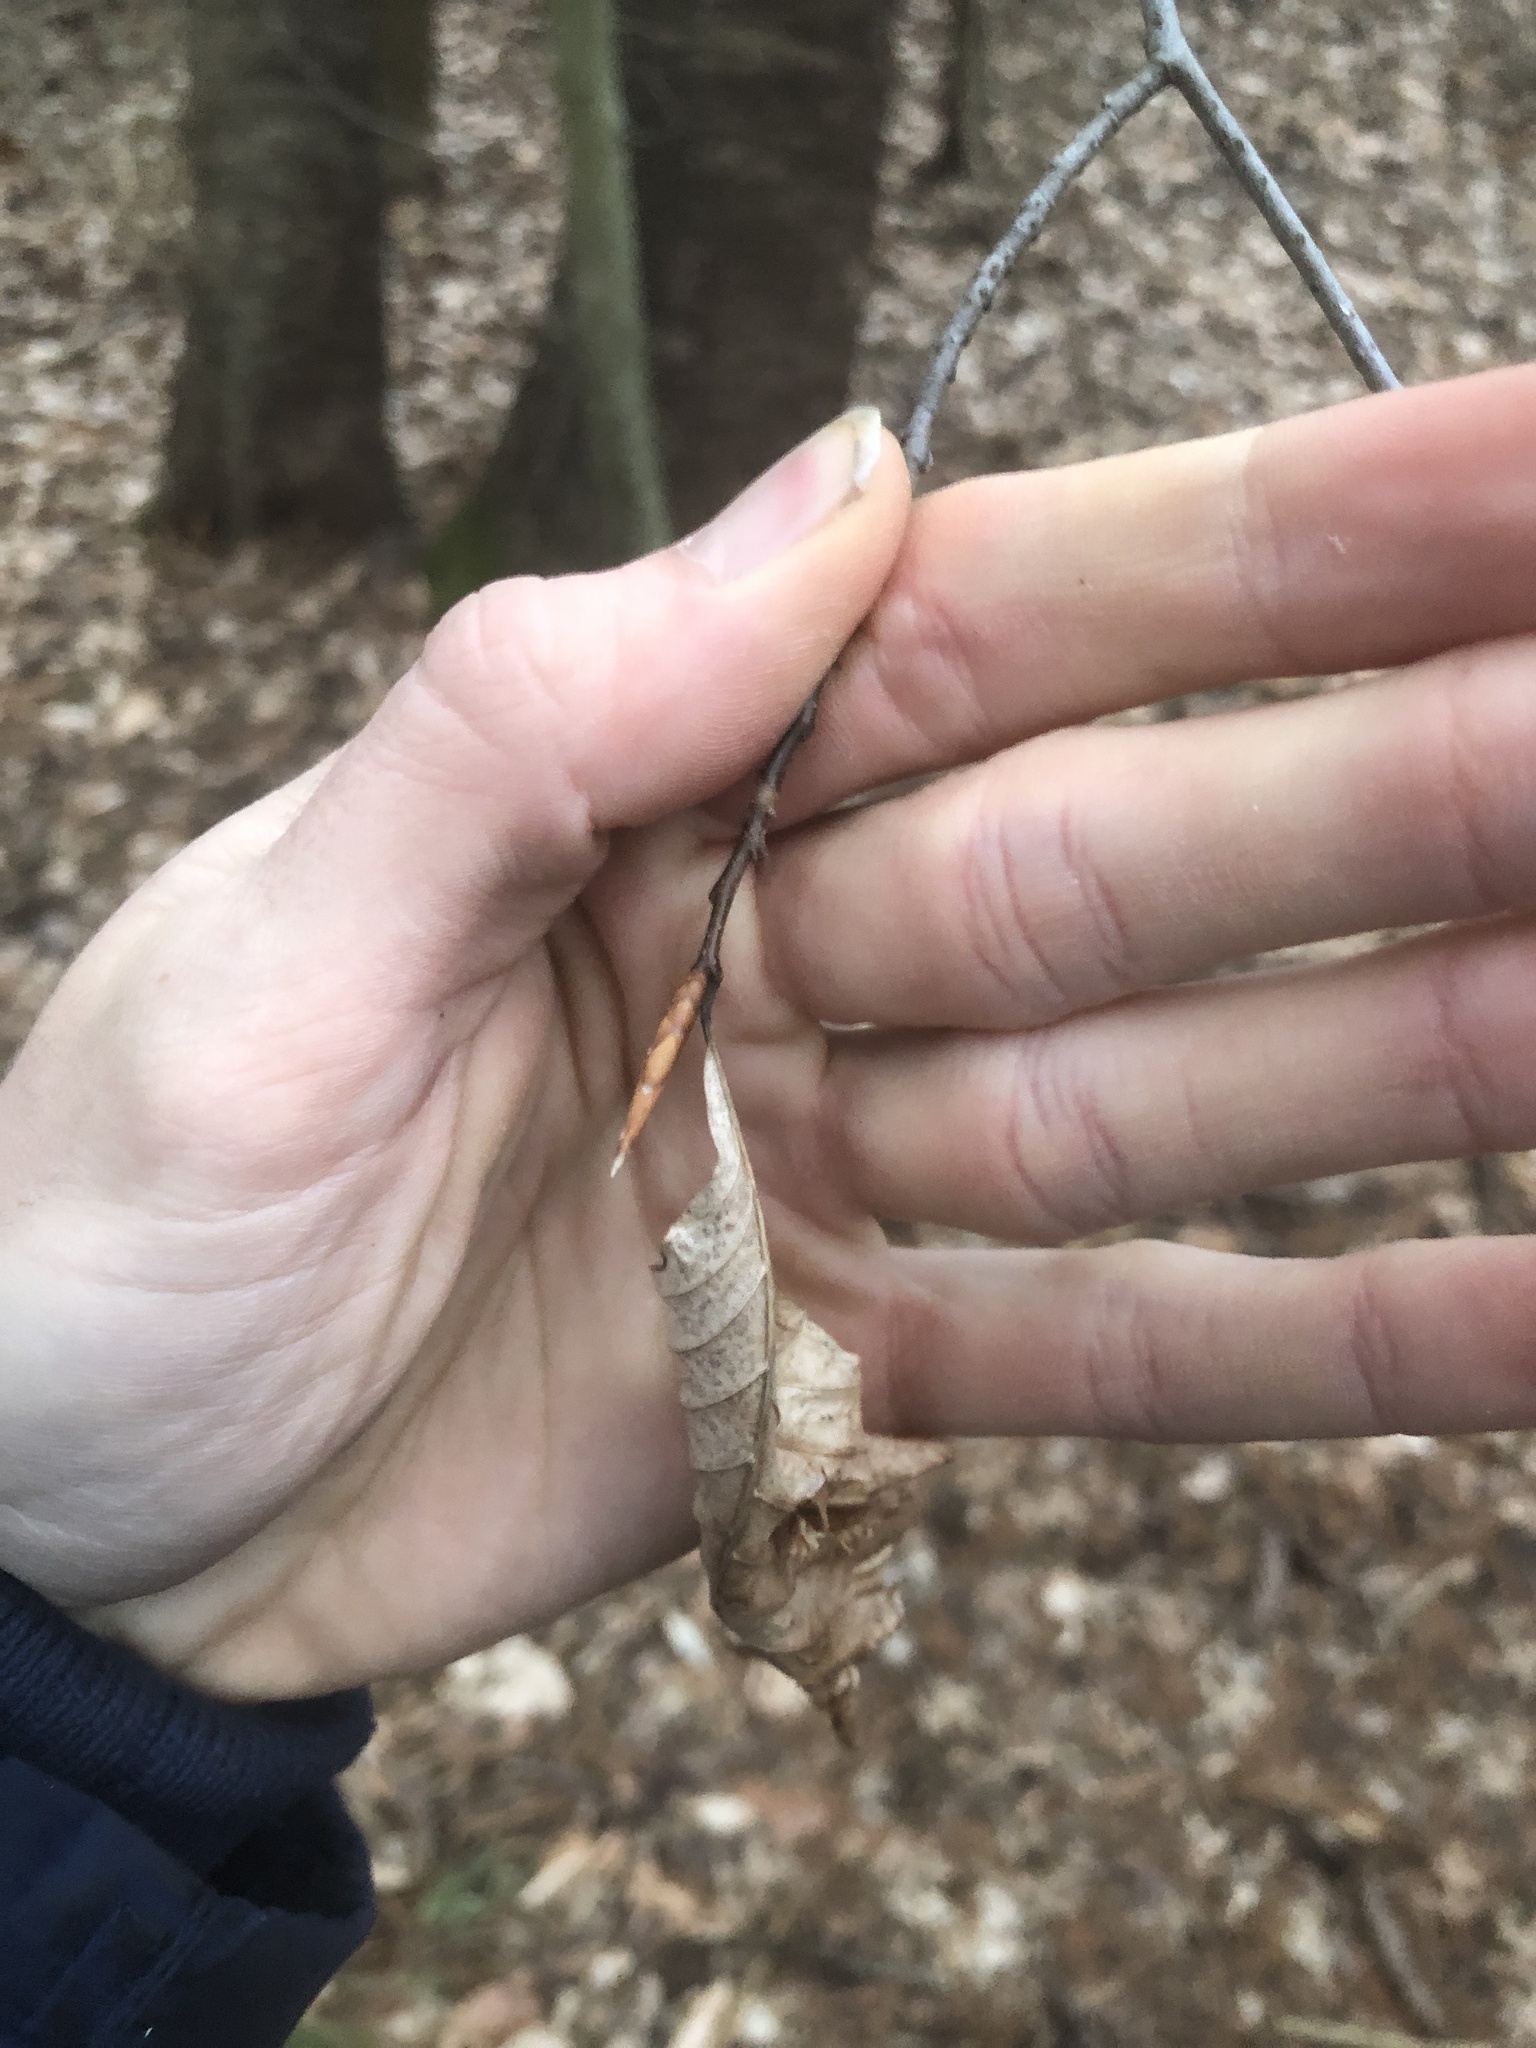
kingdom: Plantae
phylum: Tracheophyta
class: Magnoliopsida
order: Fagales
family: Fagaceae
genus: Fagus
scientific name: Fagus grandifolia
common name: American beech
